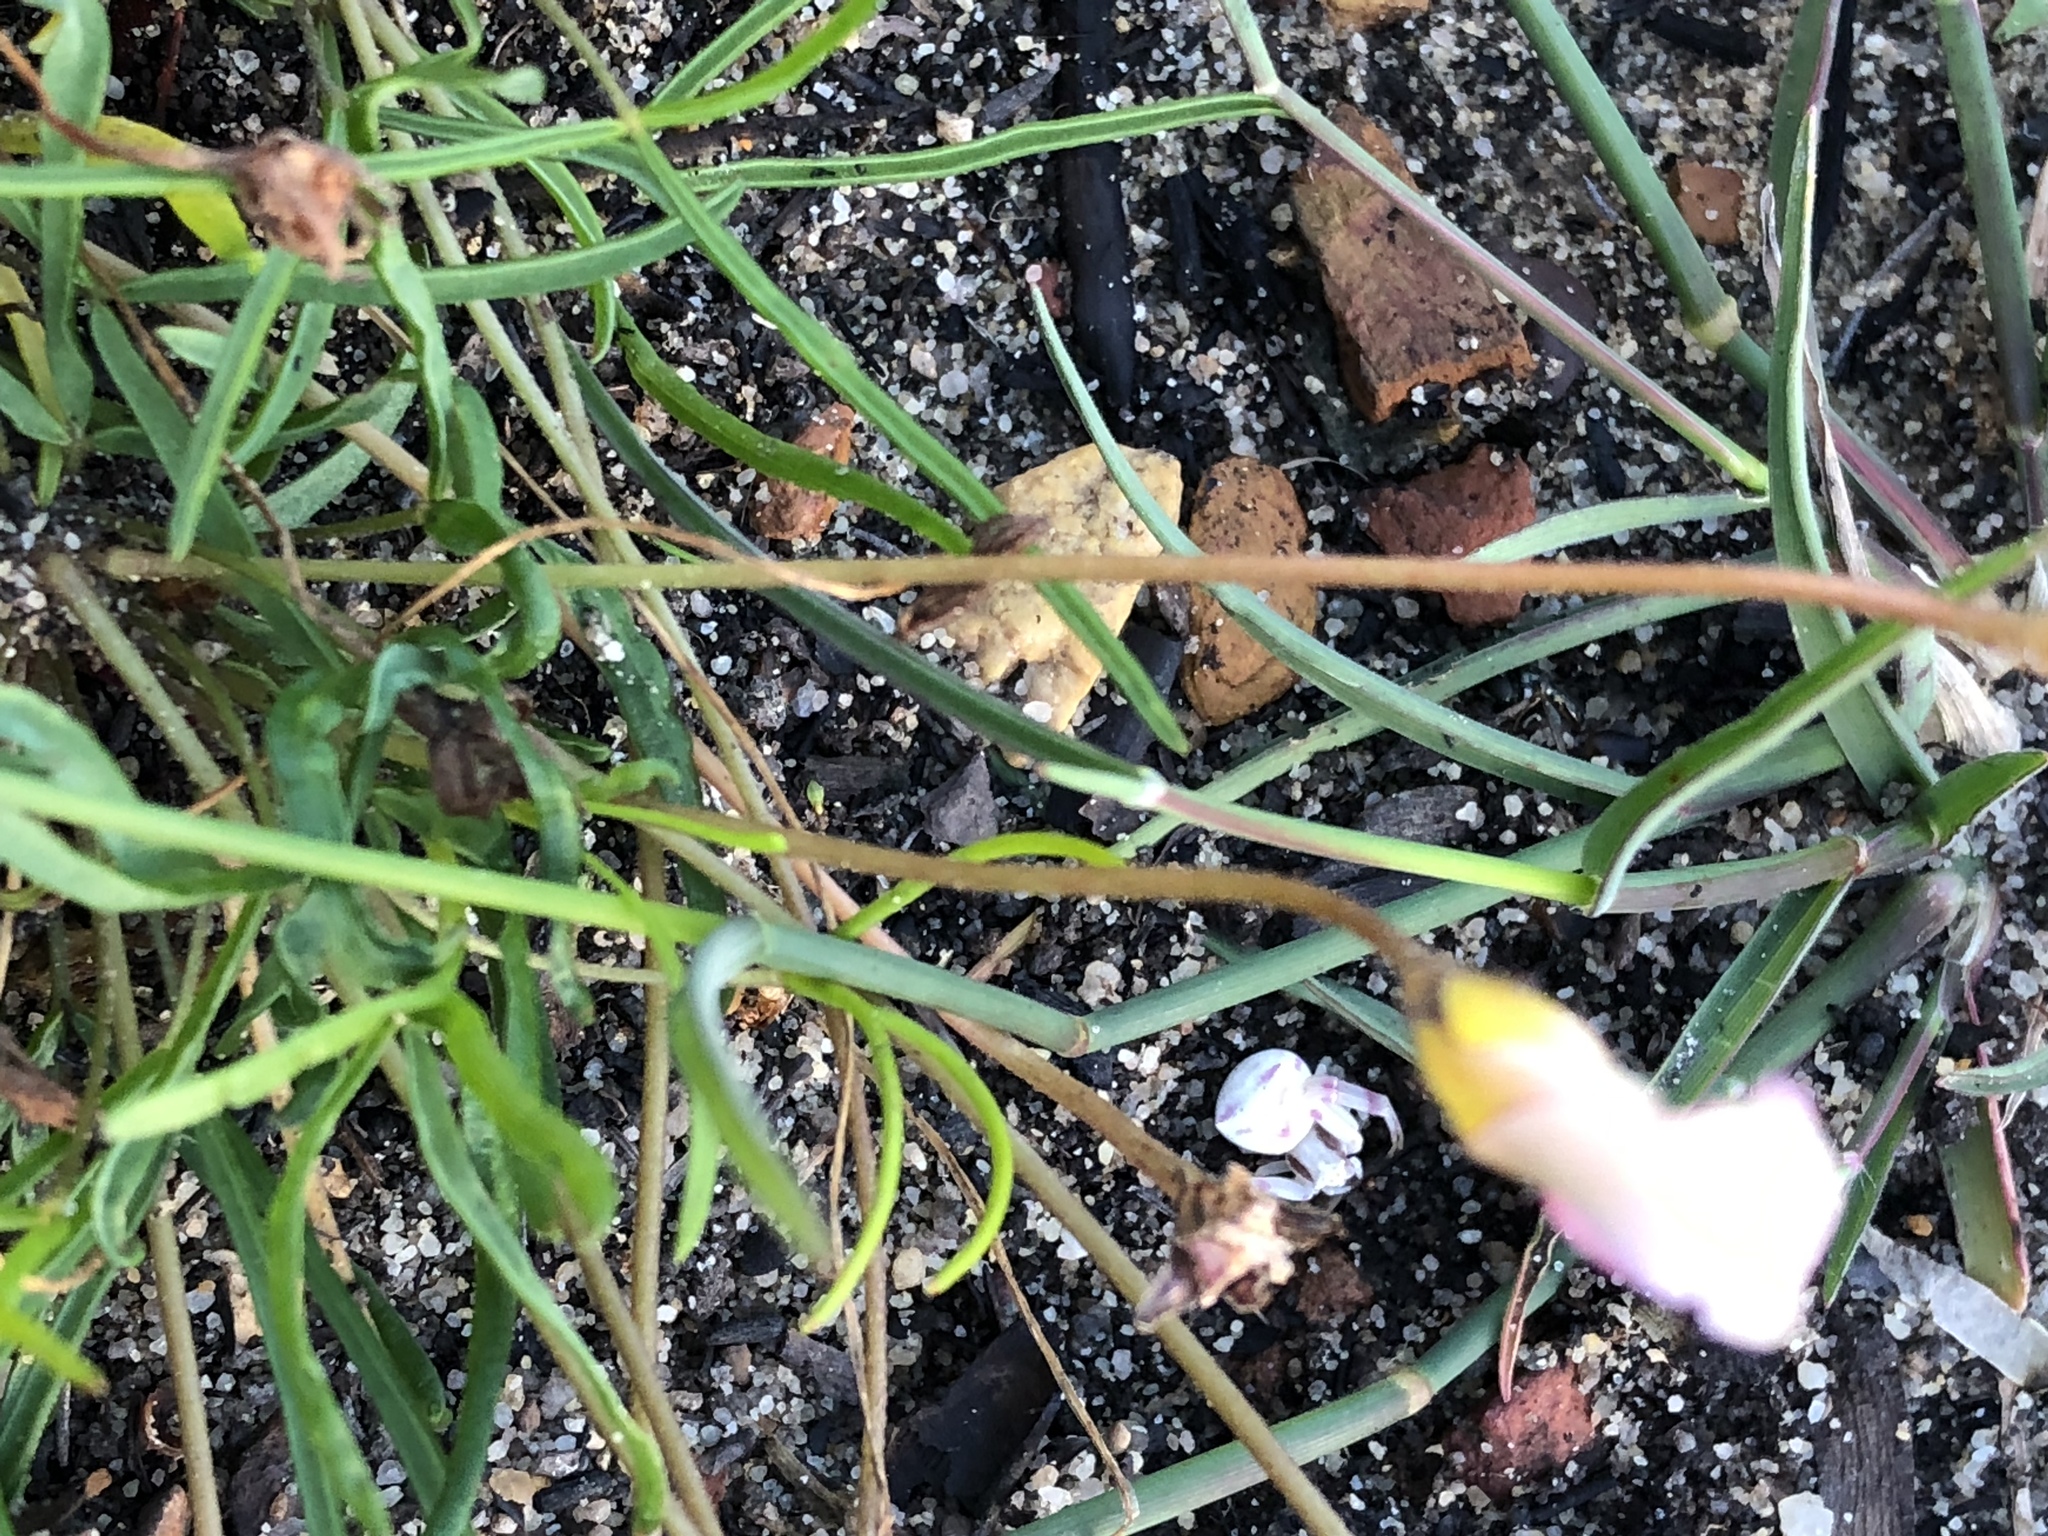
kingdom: Plantae
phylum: Tracheophyta
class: Magnoliopsida
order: Oxalidales
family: Oxalidaceae
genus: Oxalis
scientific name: Oxalis polyphylla
